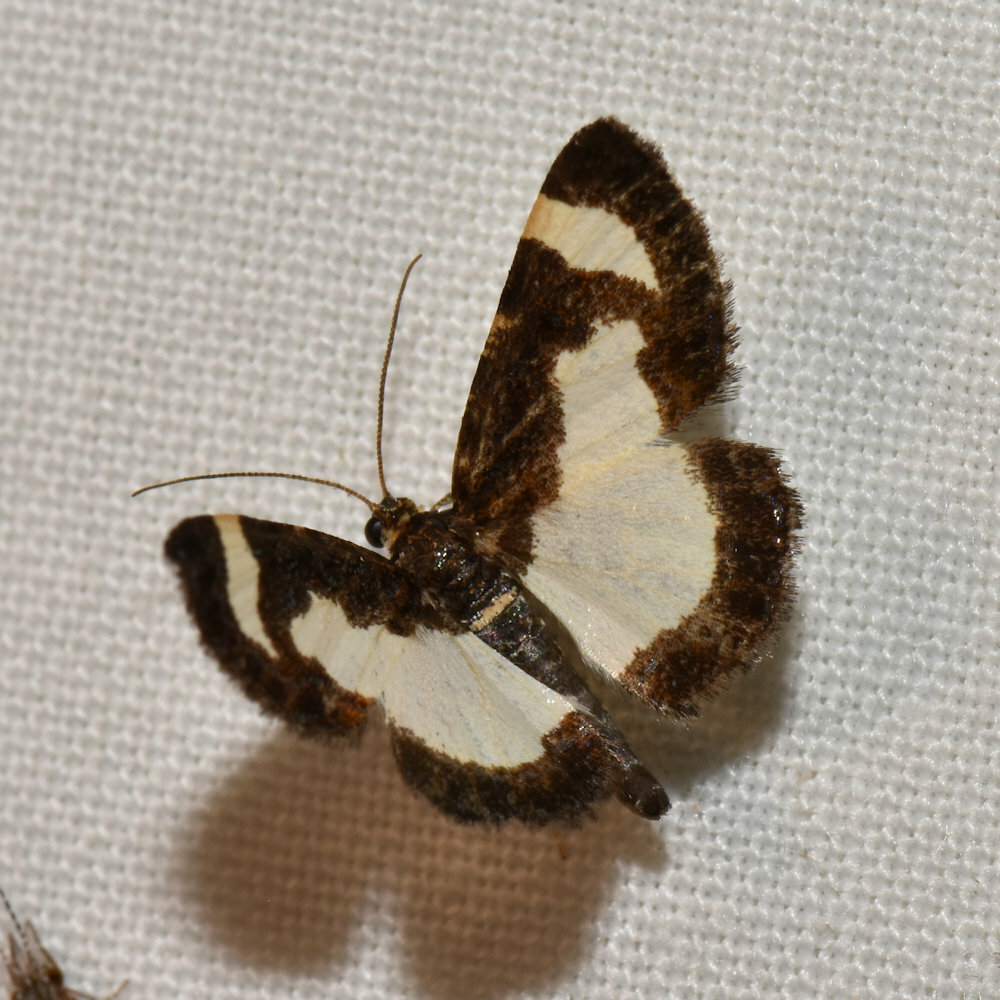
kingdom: Animalia
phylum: Arthropoda
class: Insecta
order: Lepidoptera
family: Geometridae
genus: Heliomata
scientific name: Heliomata cycladata
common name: Common spring moth
